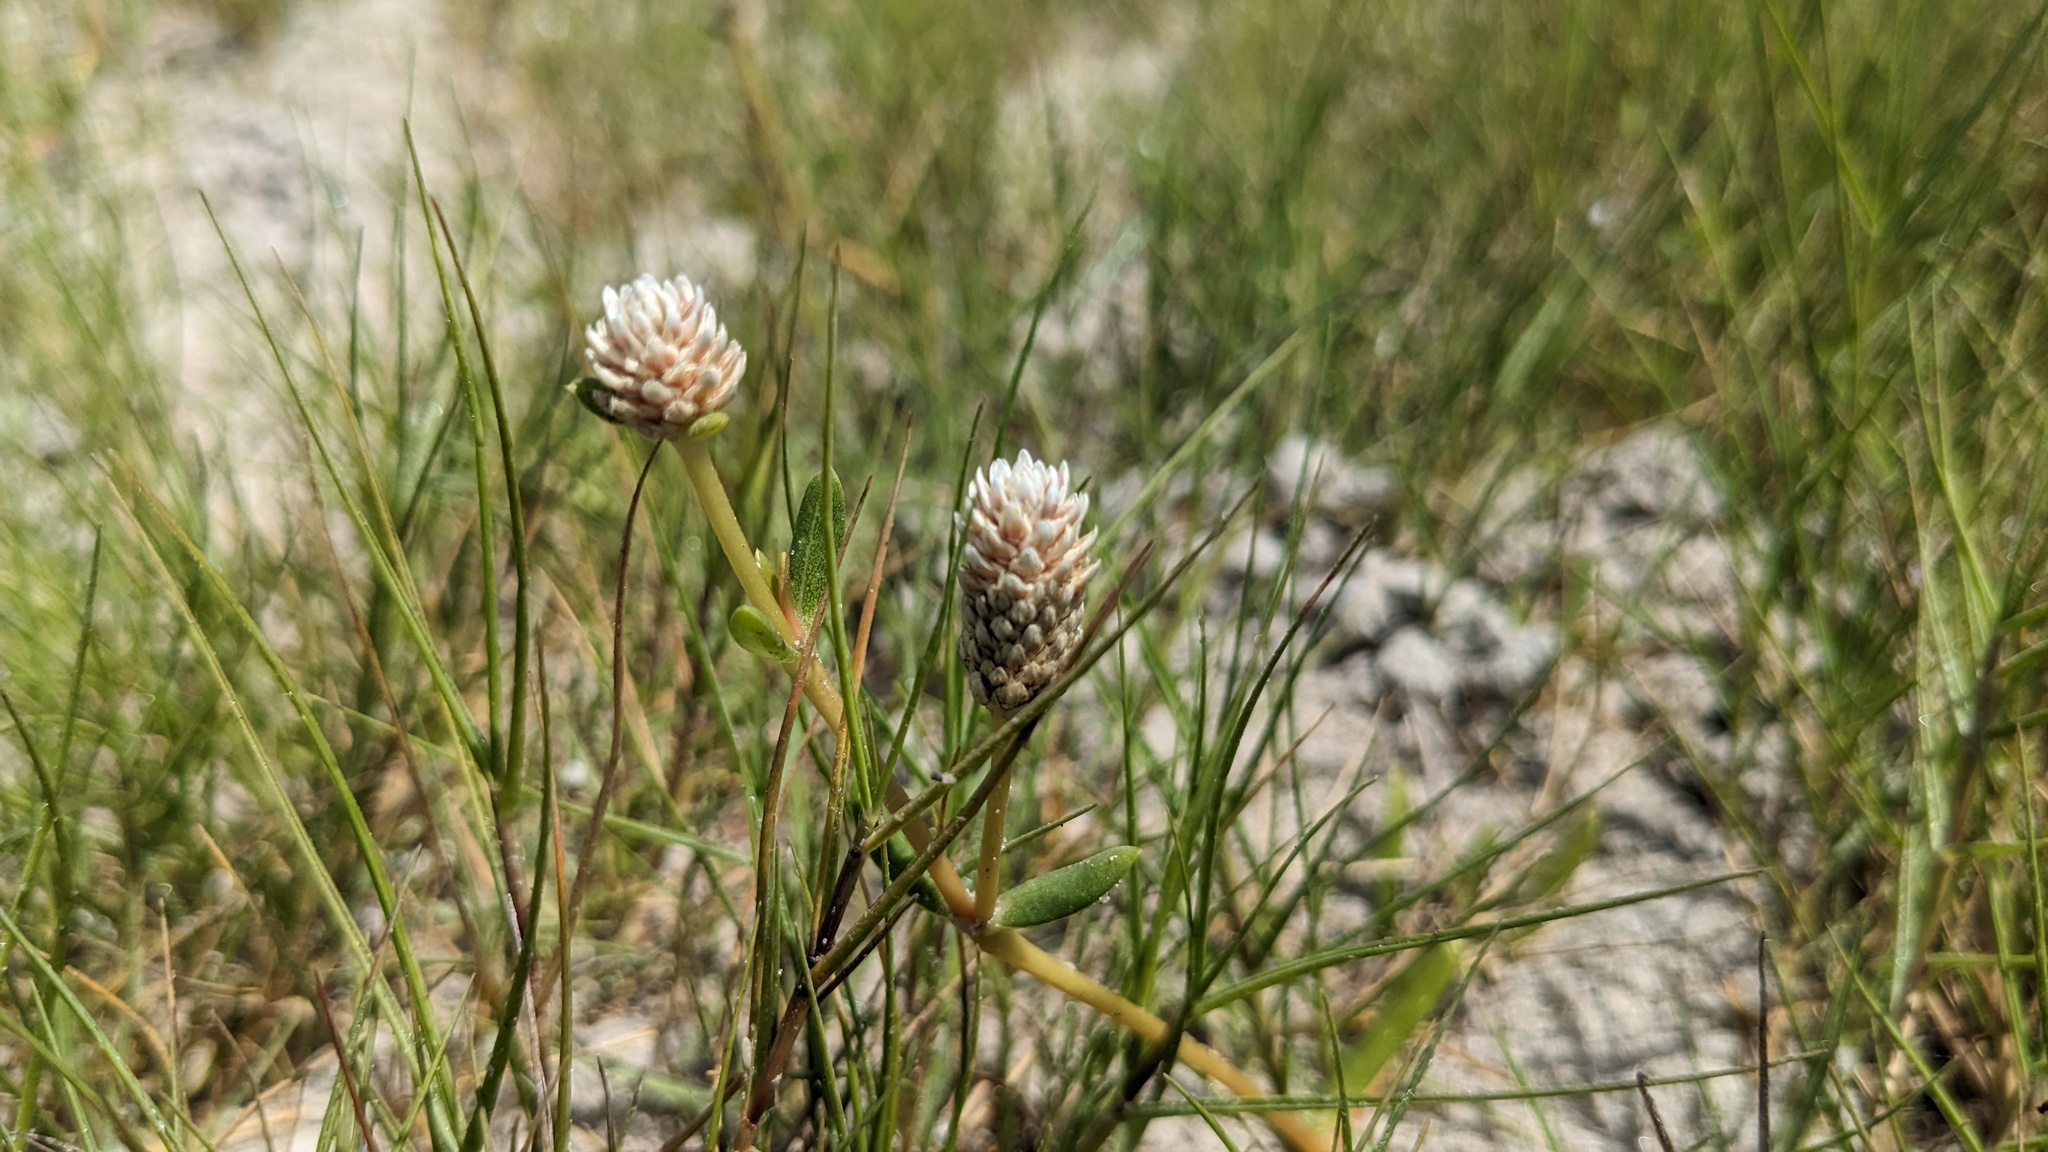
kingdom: Plantae
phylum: Tracheophyta
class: Magnoliopsida
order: Caryophyllales
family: Amaranthaceae
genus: Gomphrena
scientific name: Gomphrena vermicularis
